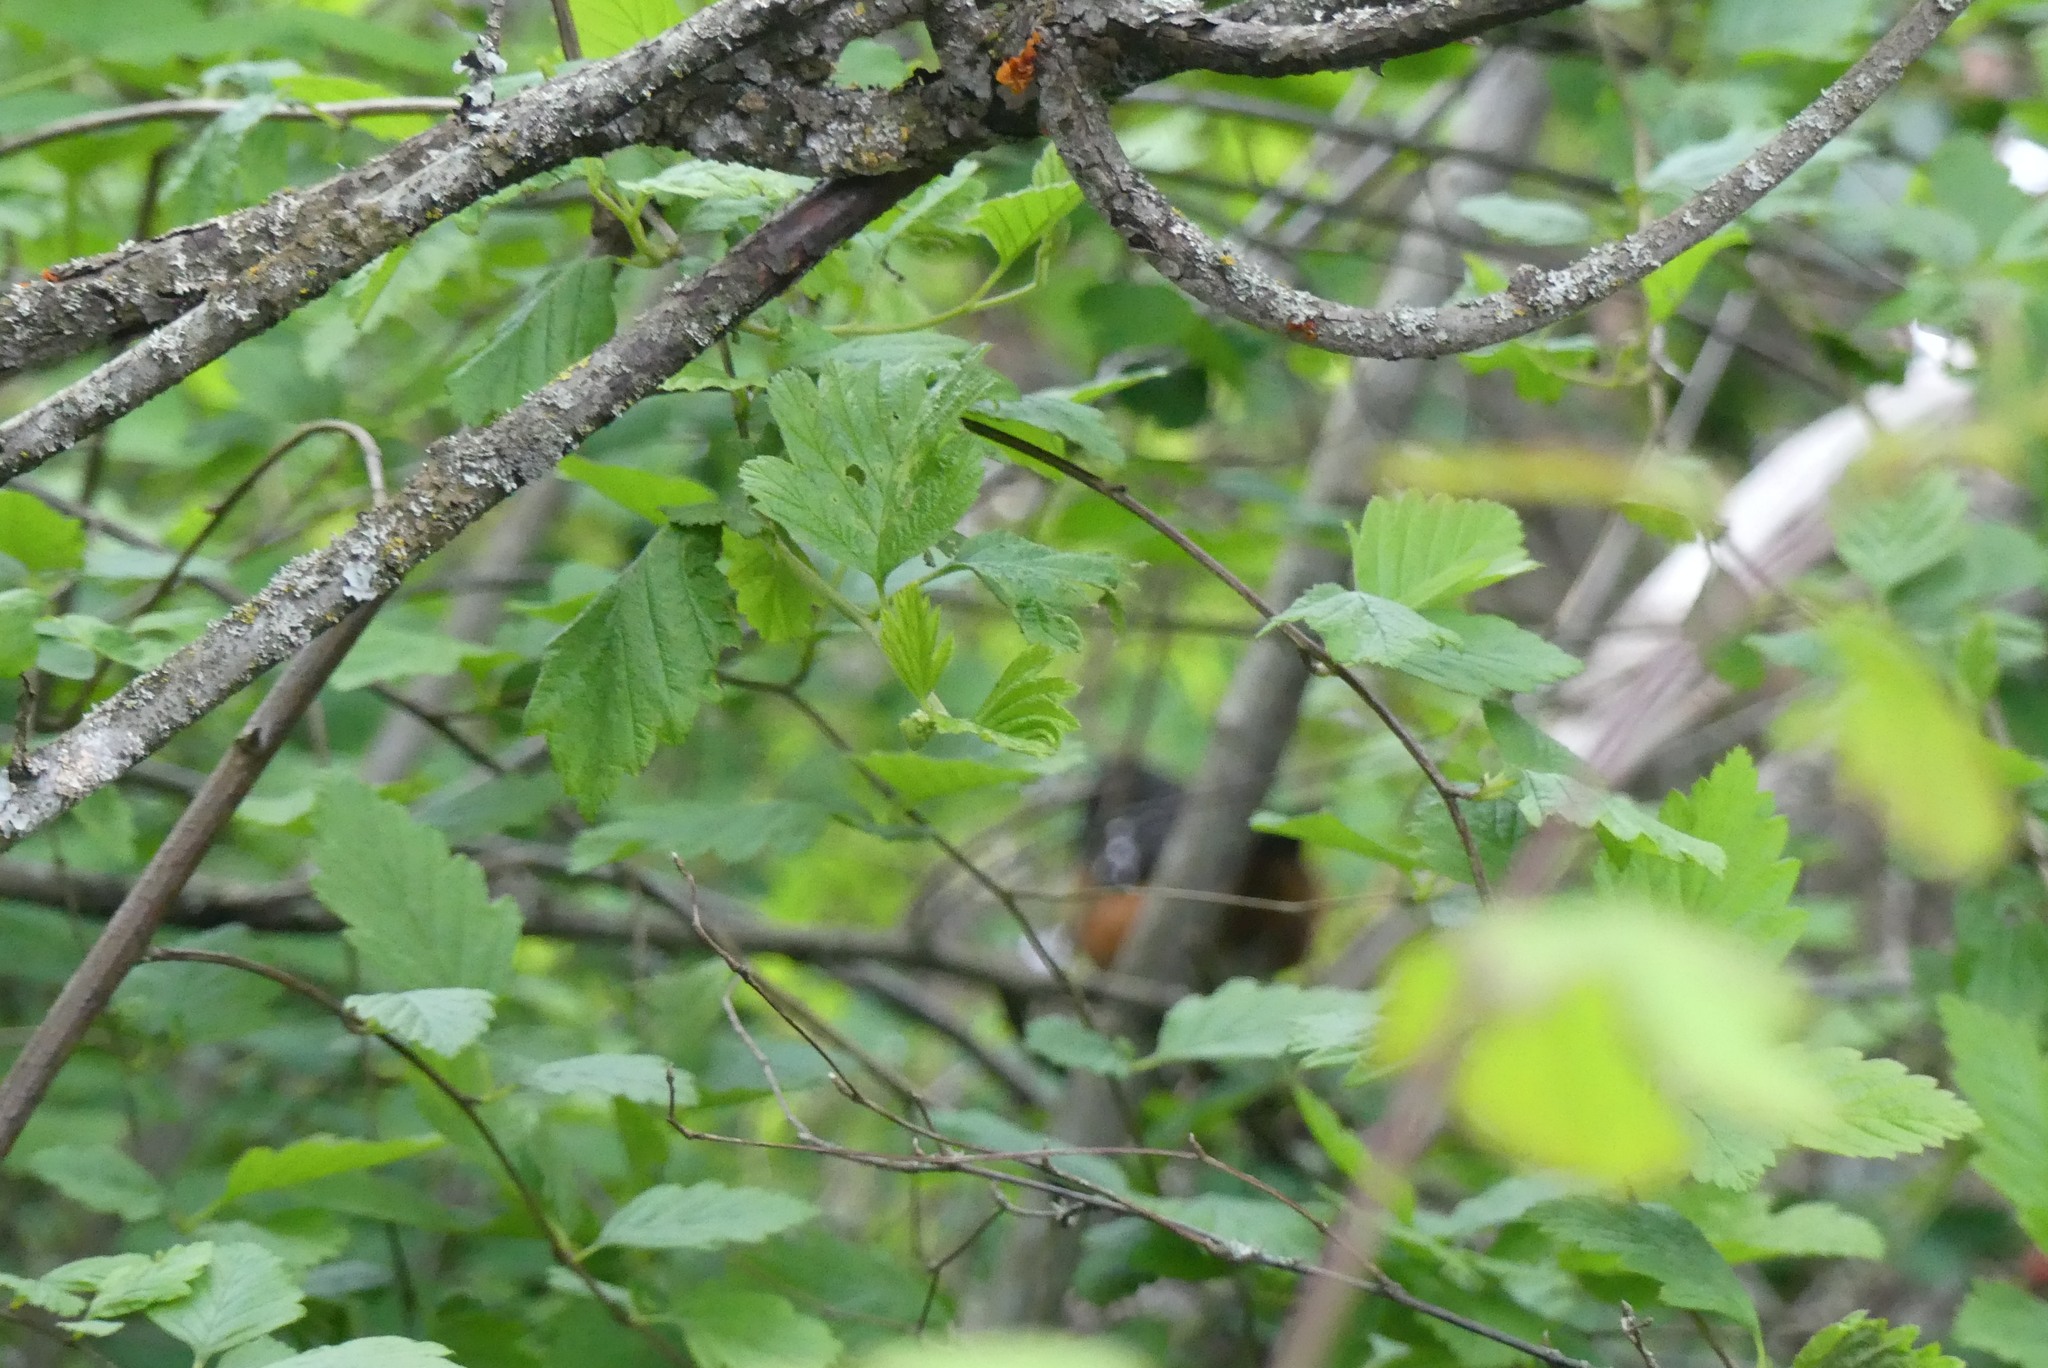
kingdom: Animalia
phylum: Chordata
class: Aves
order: Passeriformes
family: Passerellidae
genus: Pipilo
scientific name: Pipilo maculatus
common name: Spotted towhee
